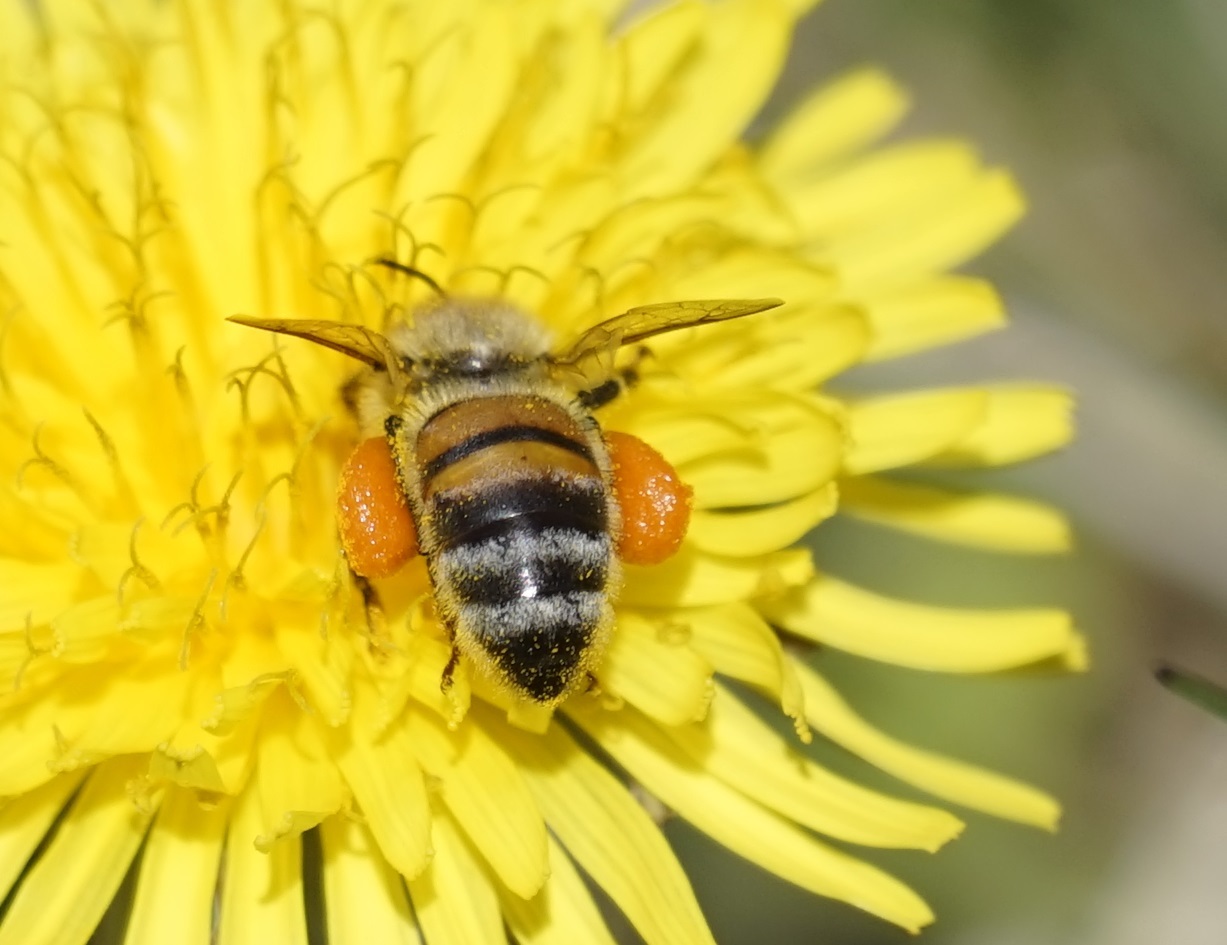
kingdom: Animalia
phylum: Arthropoda
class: Insecta
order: Hymenoptera
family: Apidae
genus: Apis
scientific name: Apis mellifera
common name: Honey bee
